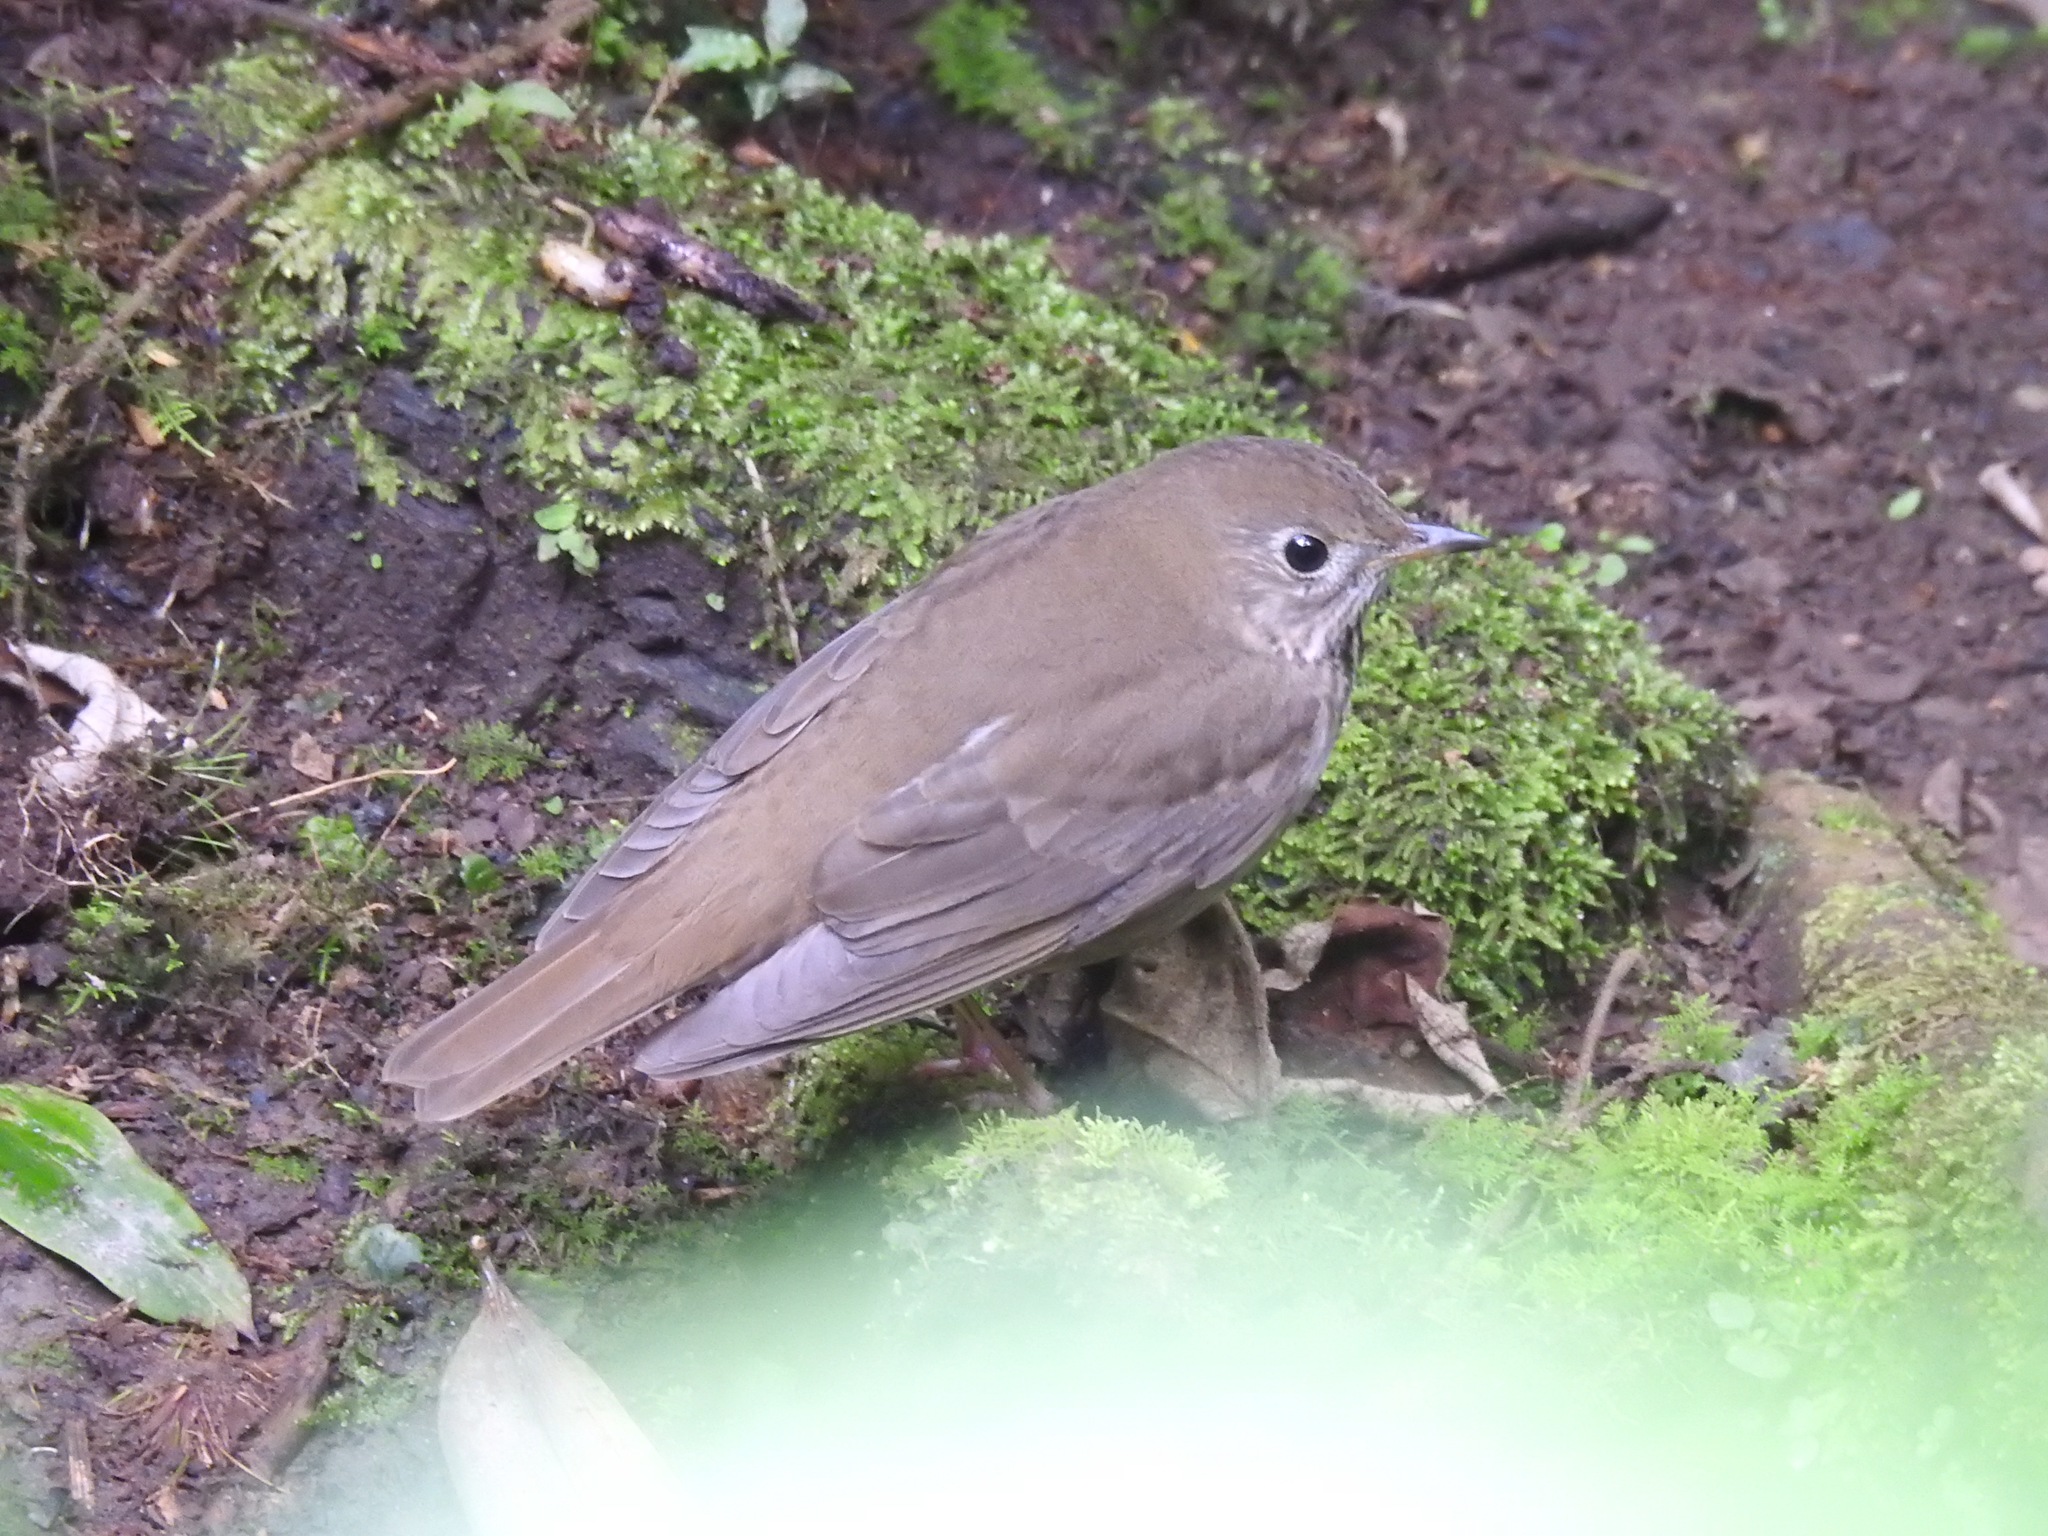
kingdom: Animalia
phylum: Chordata
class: Aves
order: Passeriformes
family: Turdidae
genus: Catharus
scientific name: Catharus minimus
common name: Grey-cheeked thrush
